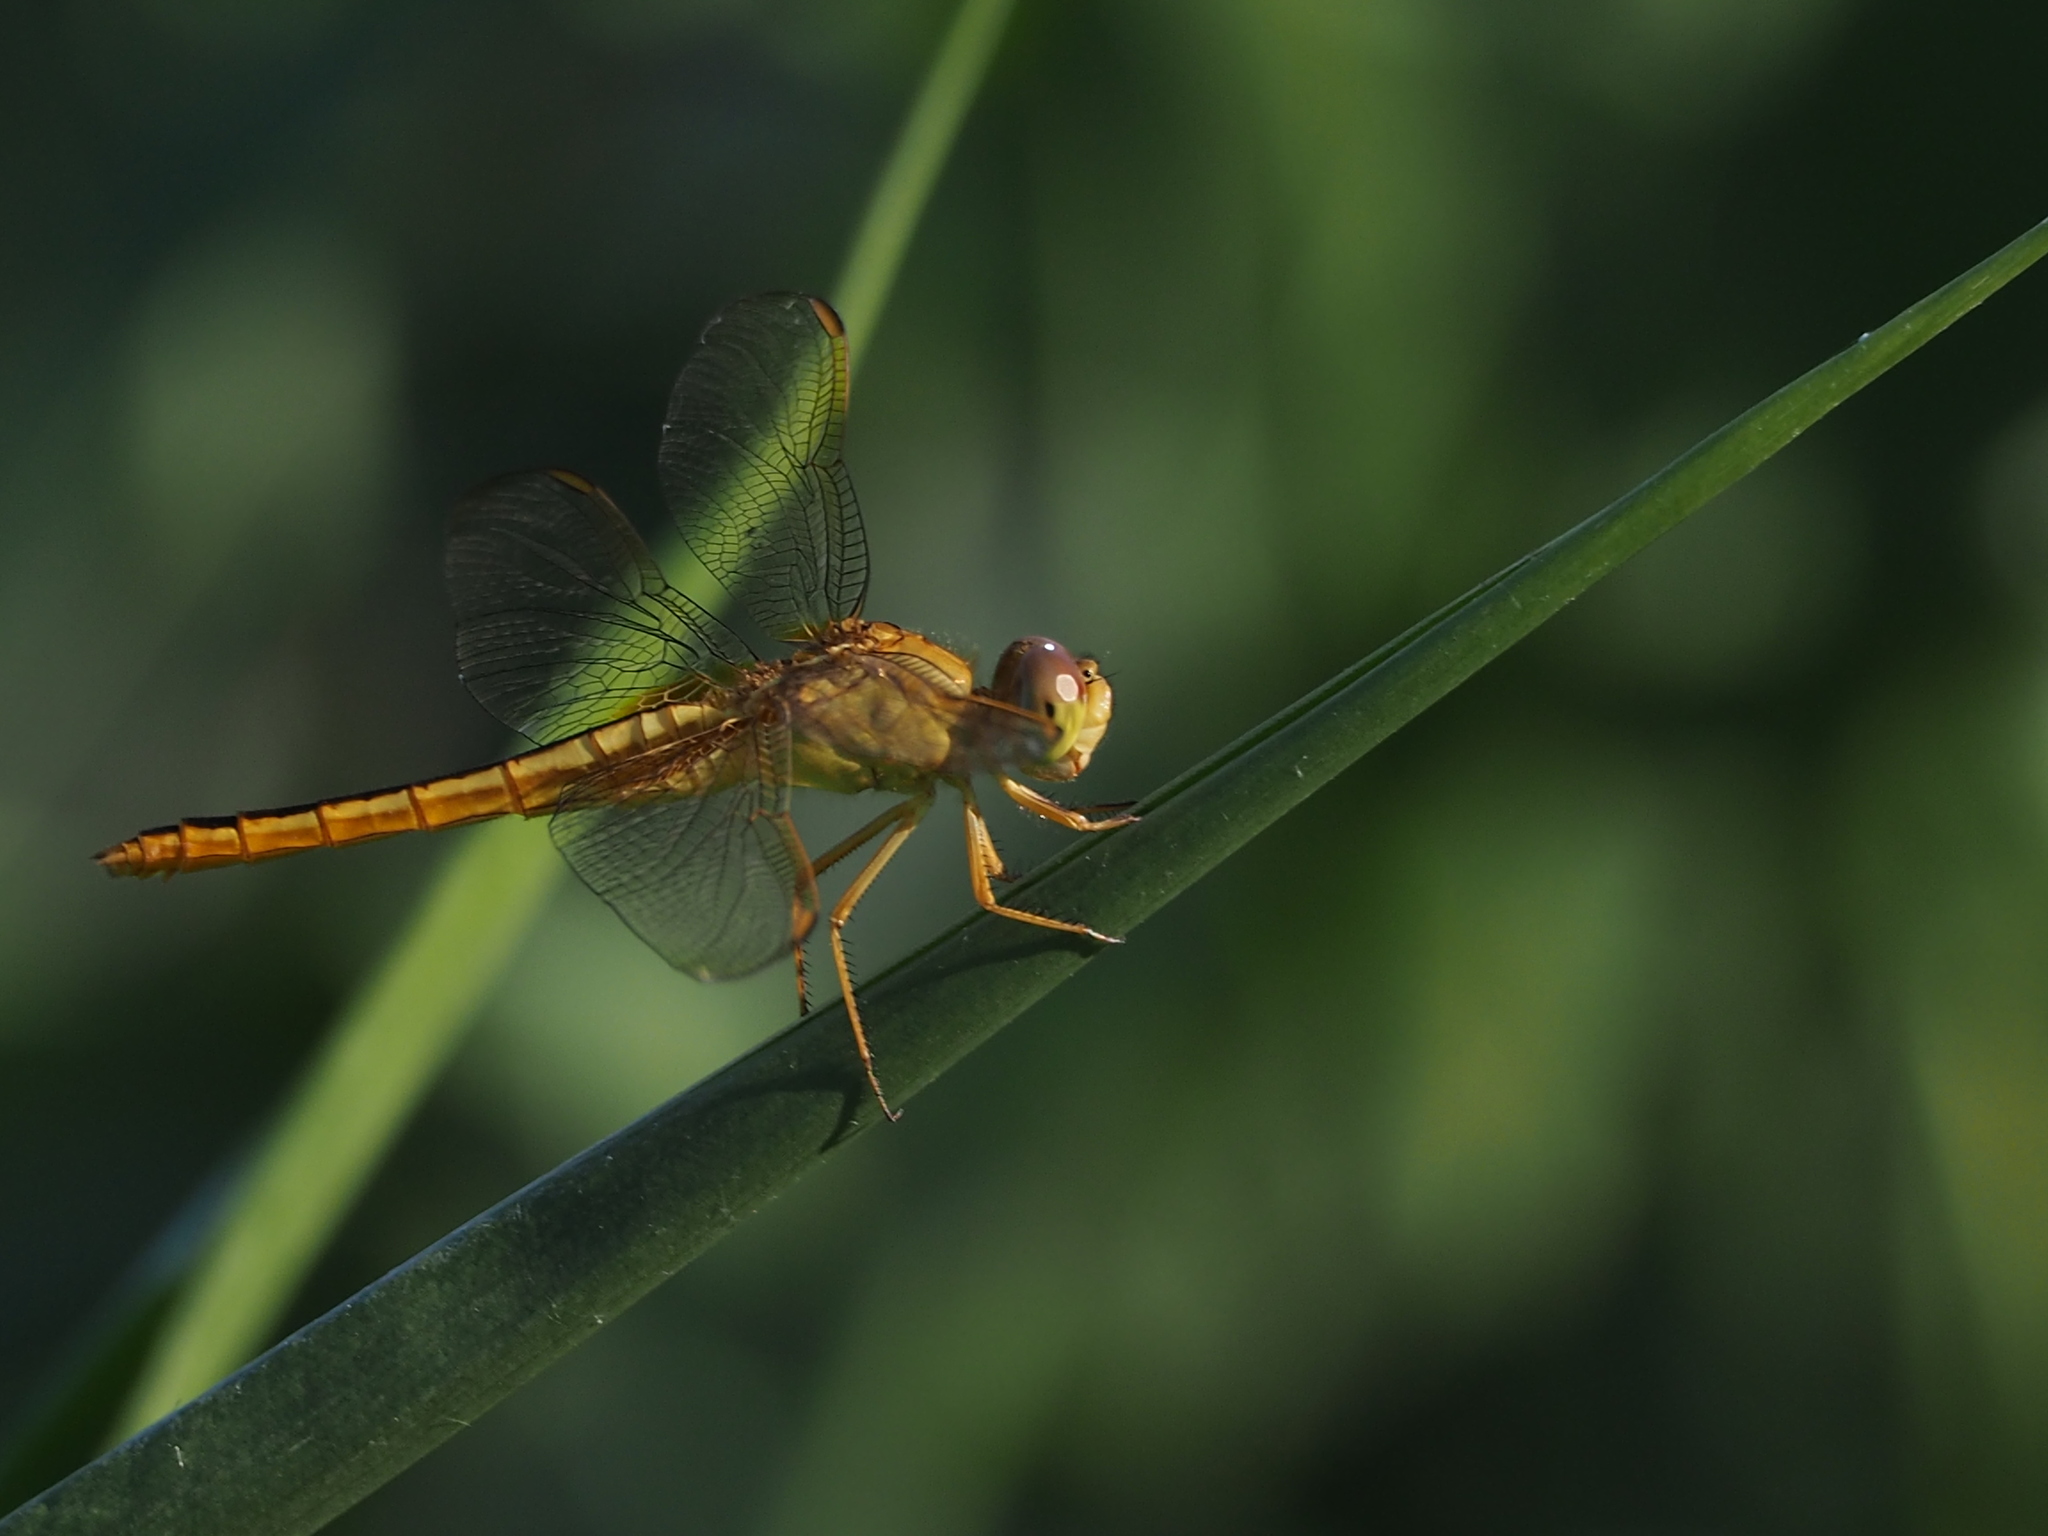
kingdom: Animalia
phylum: Arthropoda
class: Insecta
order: Odonata
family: Libellulidae
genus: Brachythemis
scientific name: Brachythemis contaminata
